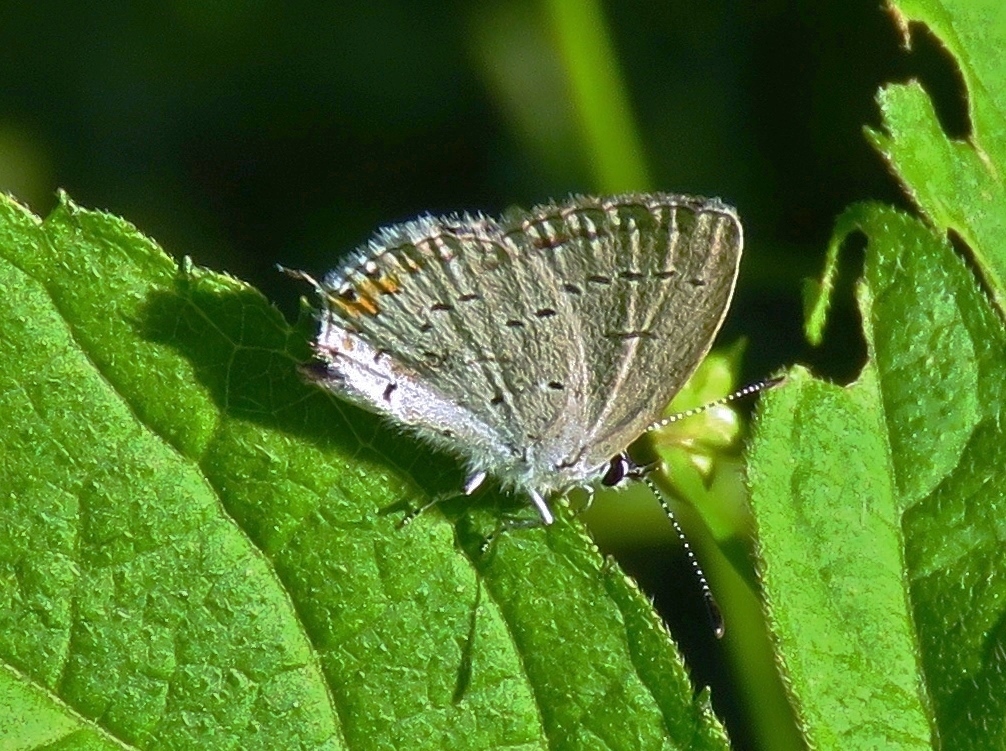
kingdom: Animalia
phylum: Arthropoda
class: Insecta
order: Lepidoptera
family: Lycaenidae
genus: Elkalyce
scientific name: Elkalyce comyntas
